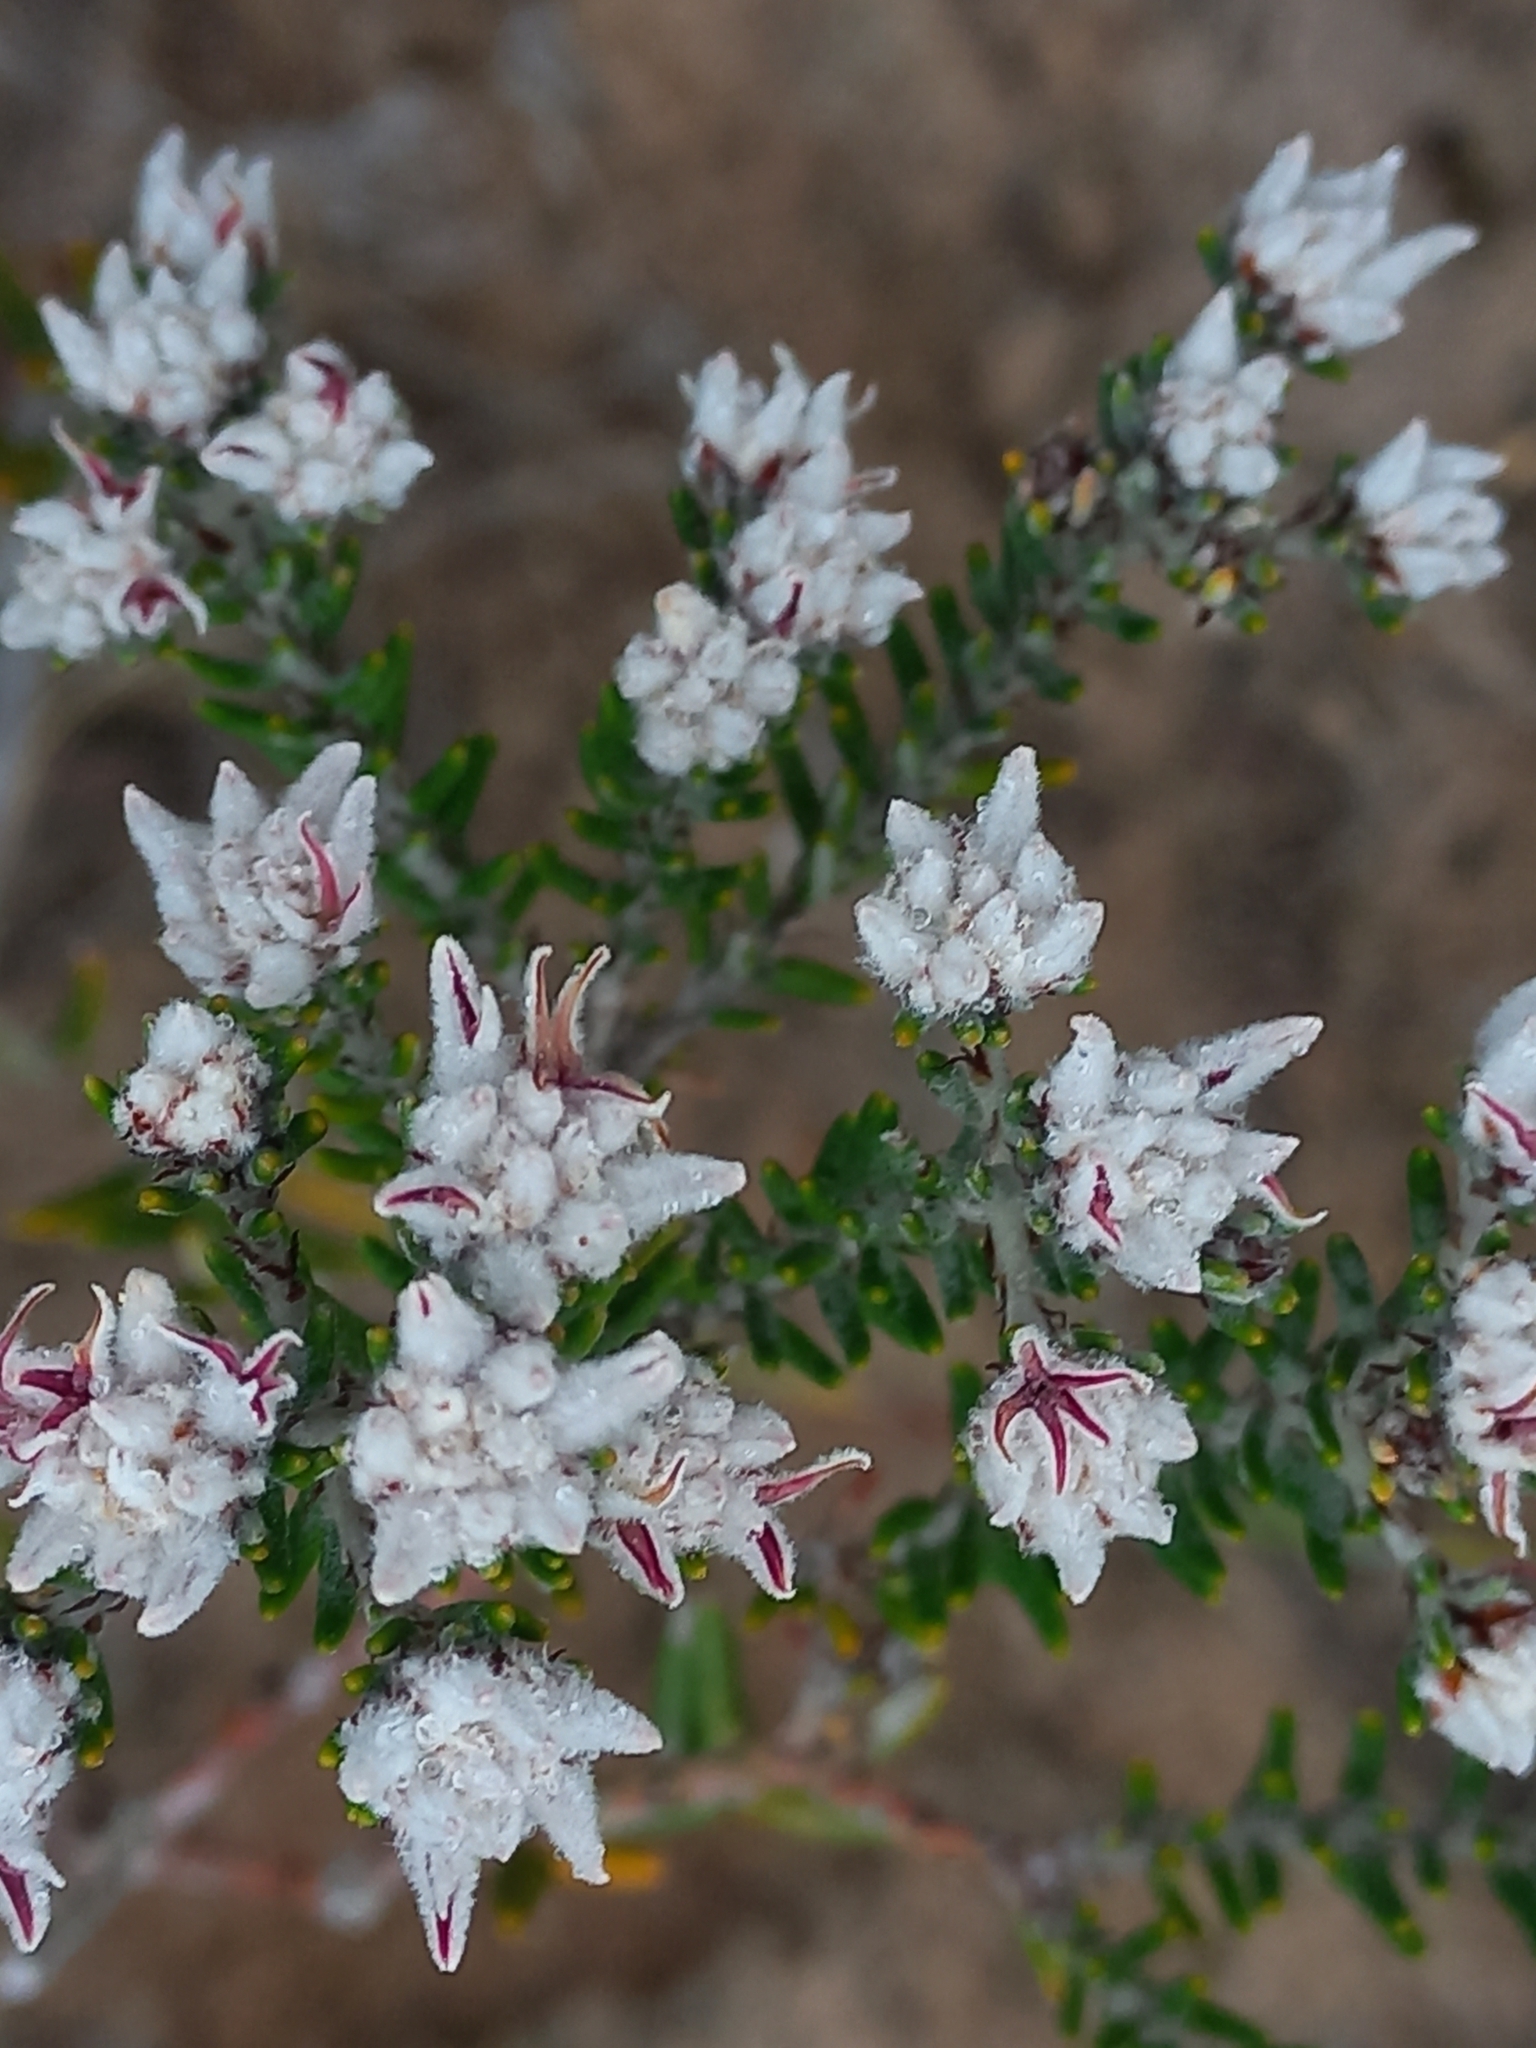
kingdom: Plantae
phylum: Tracheophyta
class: Magnoliopsida
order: Rosales
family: Rhamnaceae
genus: Trichocephalus
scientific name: Trichocephalus stipularis
